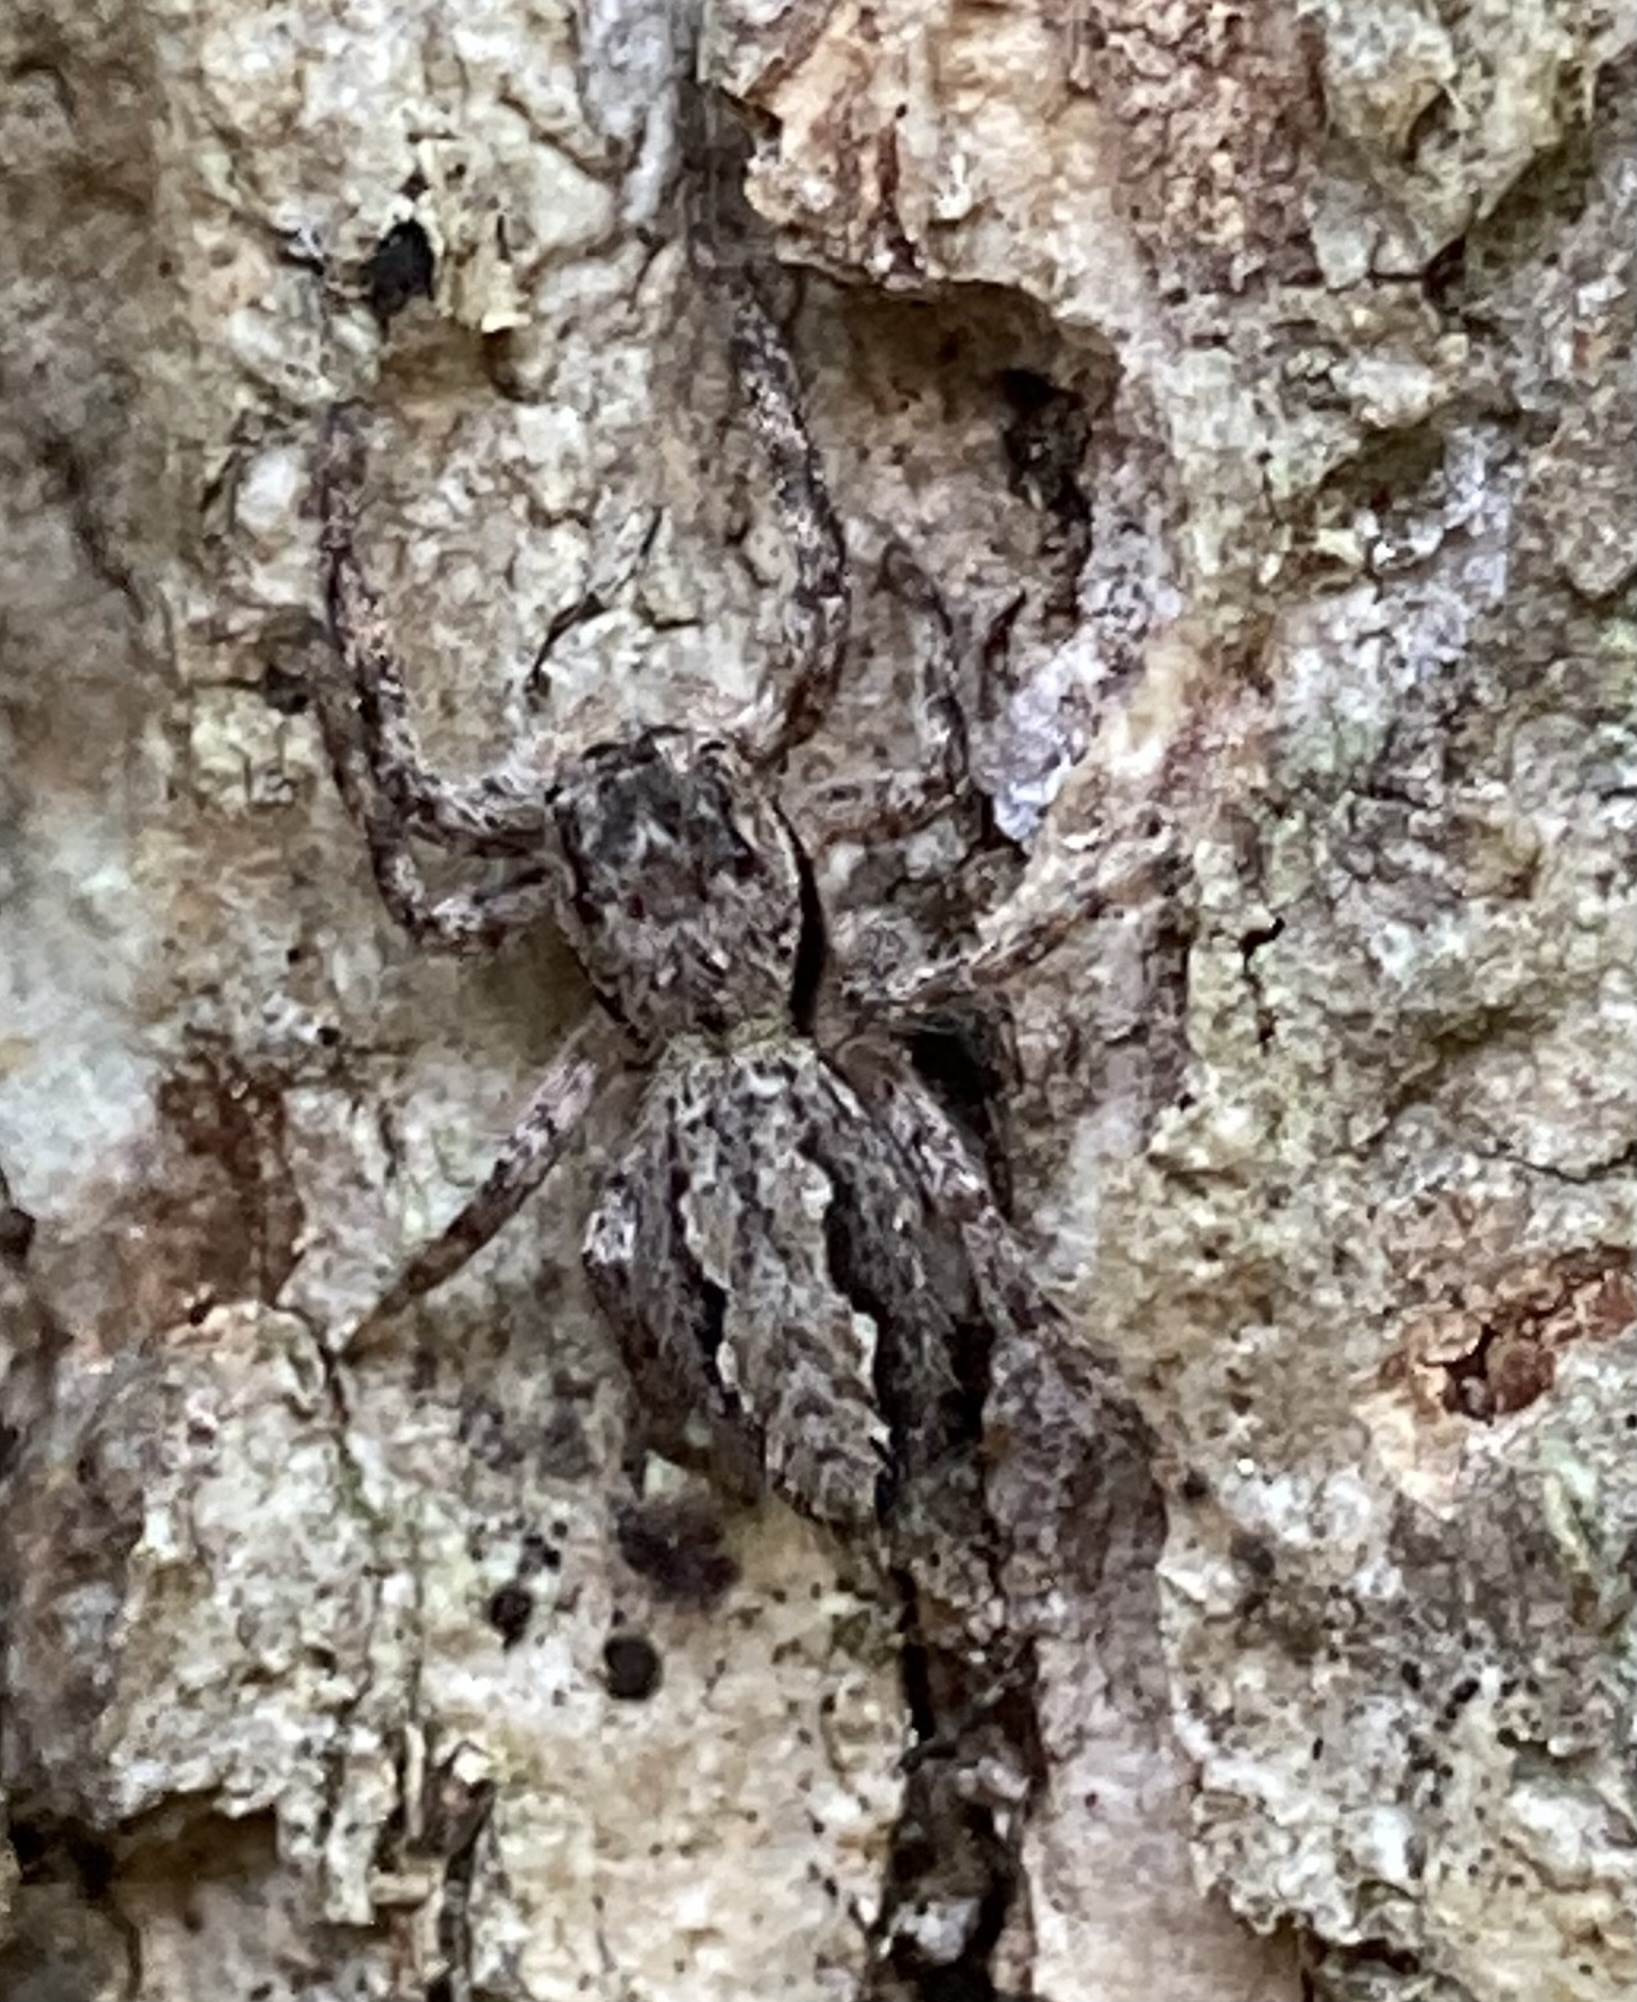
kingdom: Animalia
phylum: Arthropoda
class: Arachnida
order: Araneae
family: Salticidae
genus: Platycryptus
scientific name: Platycryptus undatus
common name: Tan jumping spider
